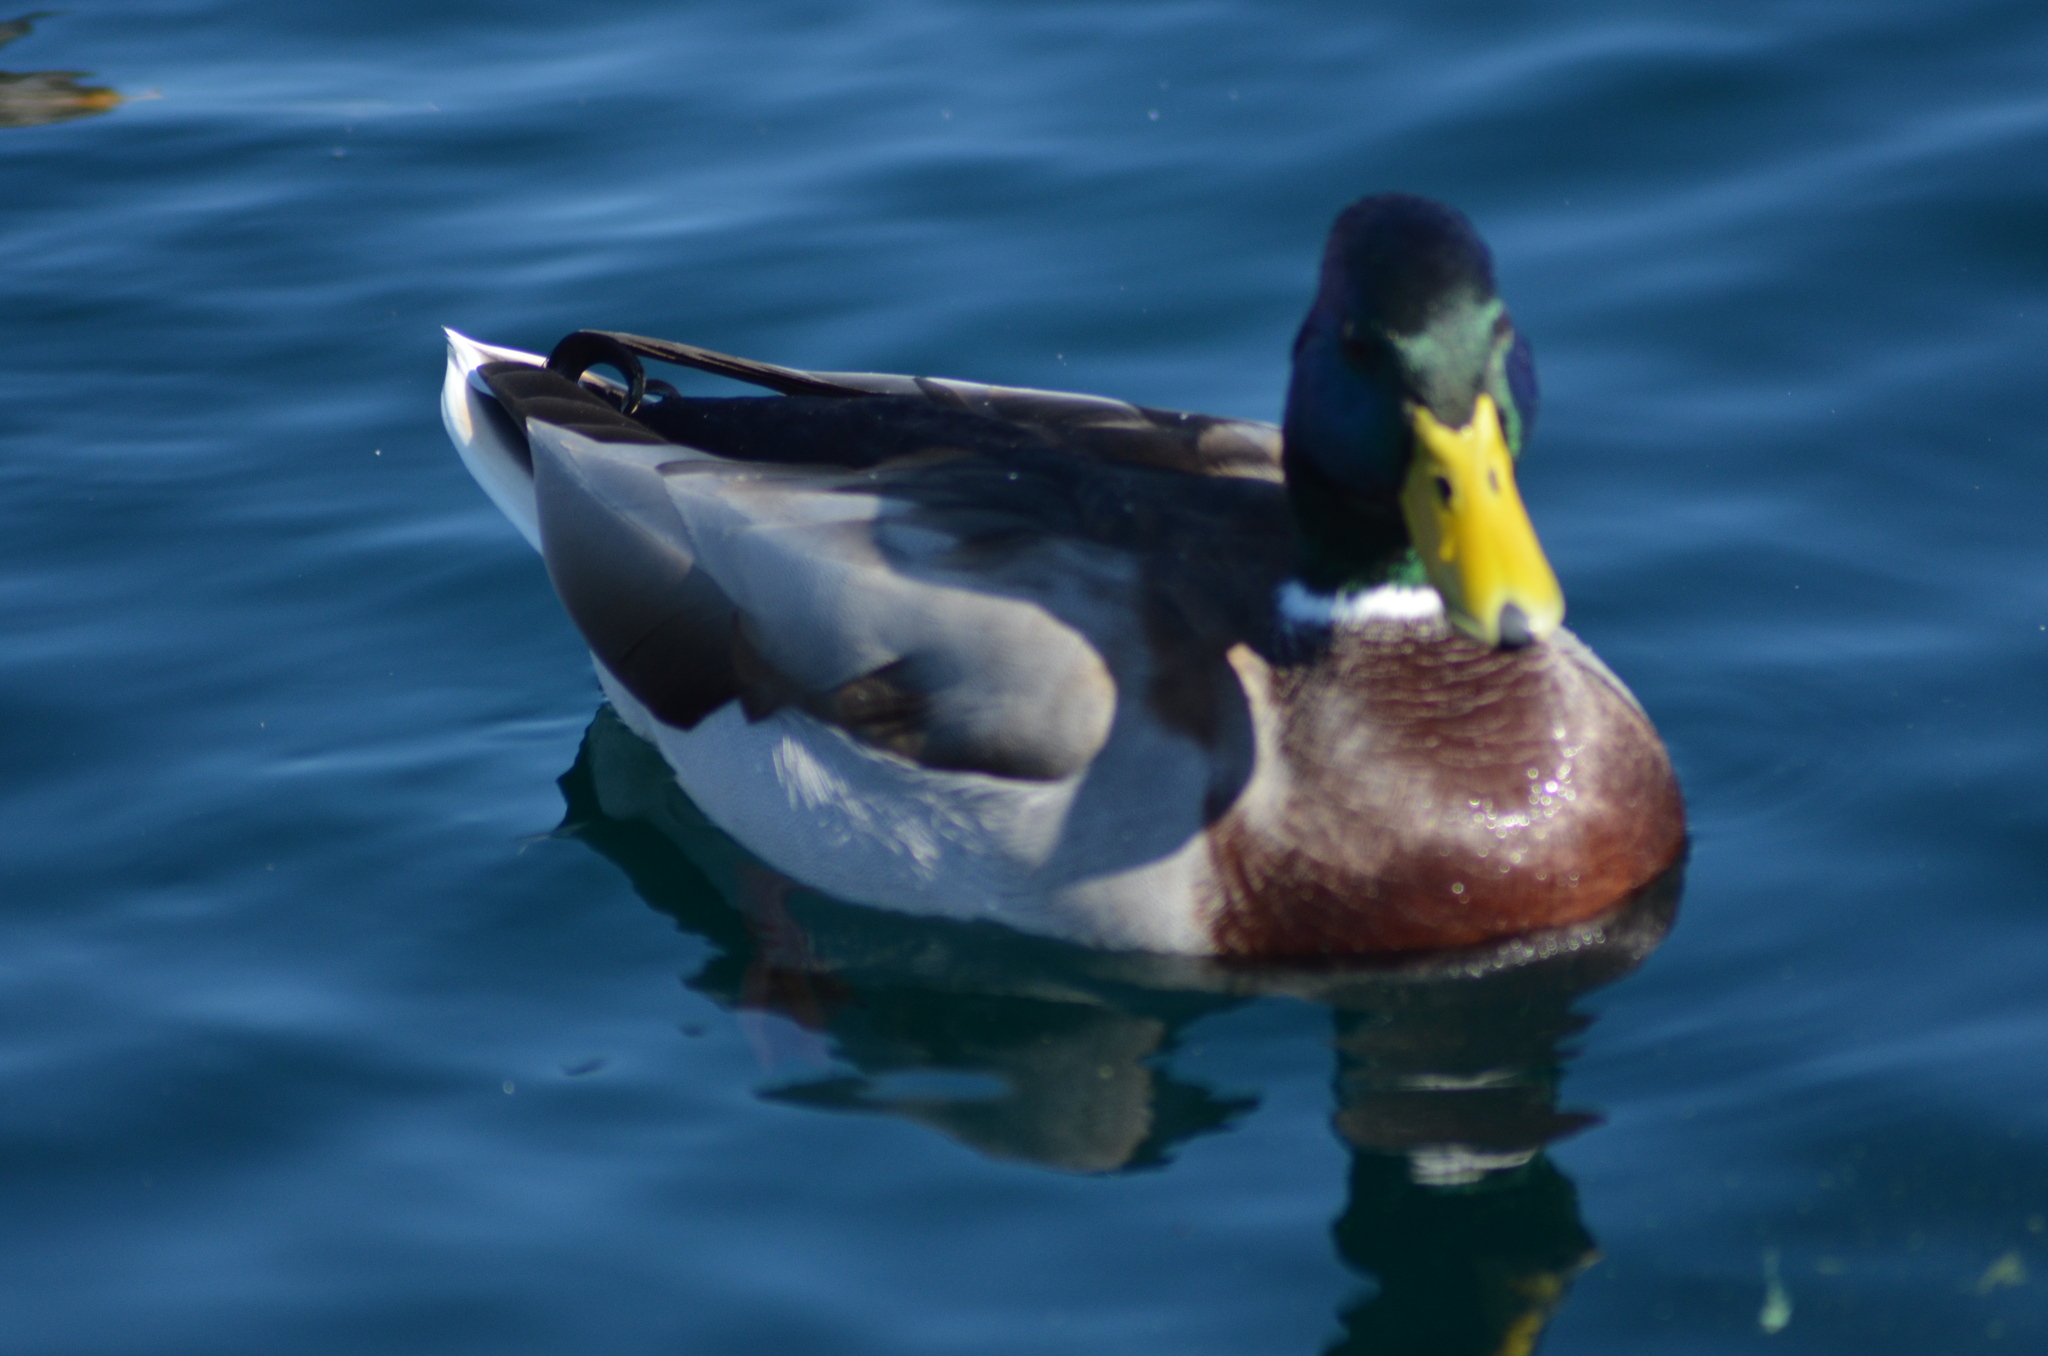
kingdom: Animalia
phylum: Chordata
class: Aves
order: Anseriformes
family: Anatidae
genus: Anas
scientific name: Anas platyrhynchos
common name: Mallard
